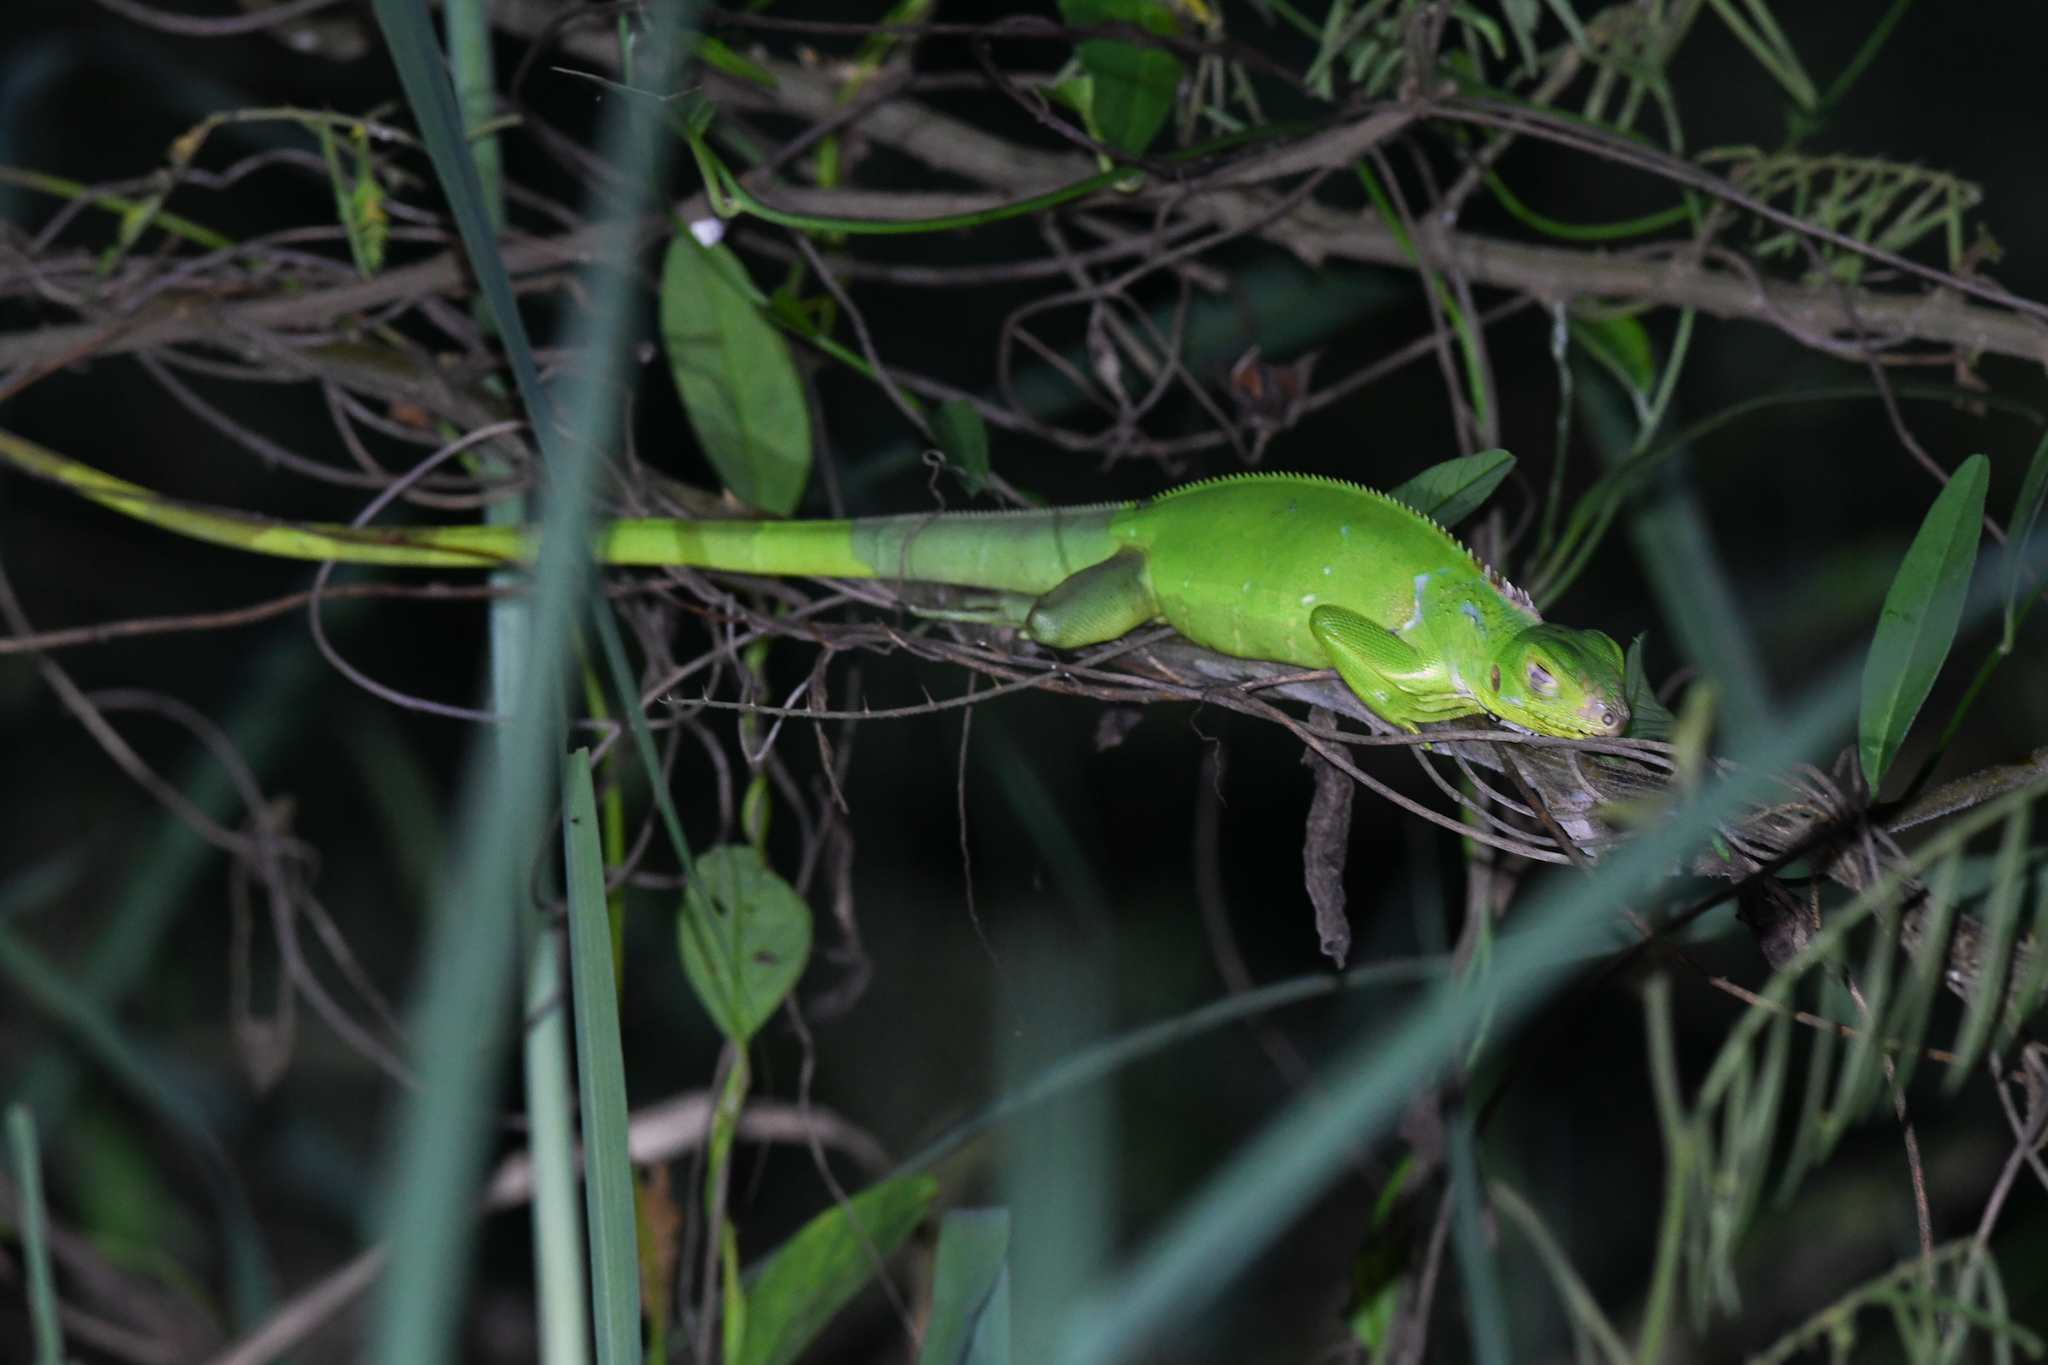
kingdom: Animalia
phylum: Chordata
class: Squamata
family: Iguanidae
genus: Iguana
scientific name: Iguana iguana
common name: Green iguana
